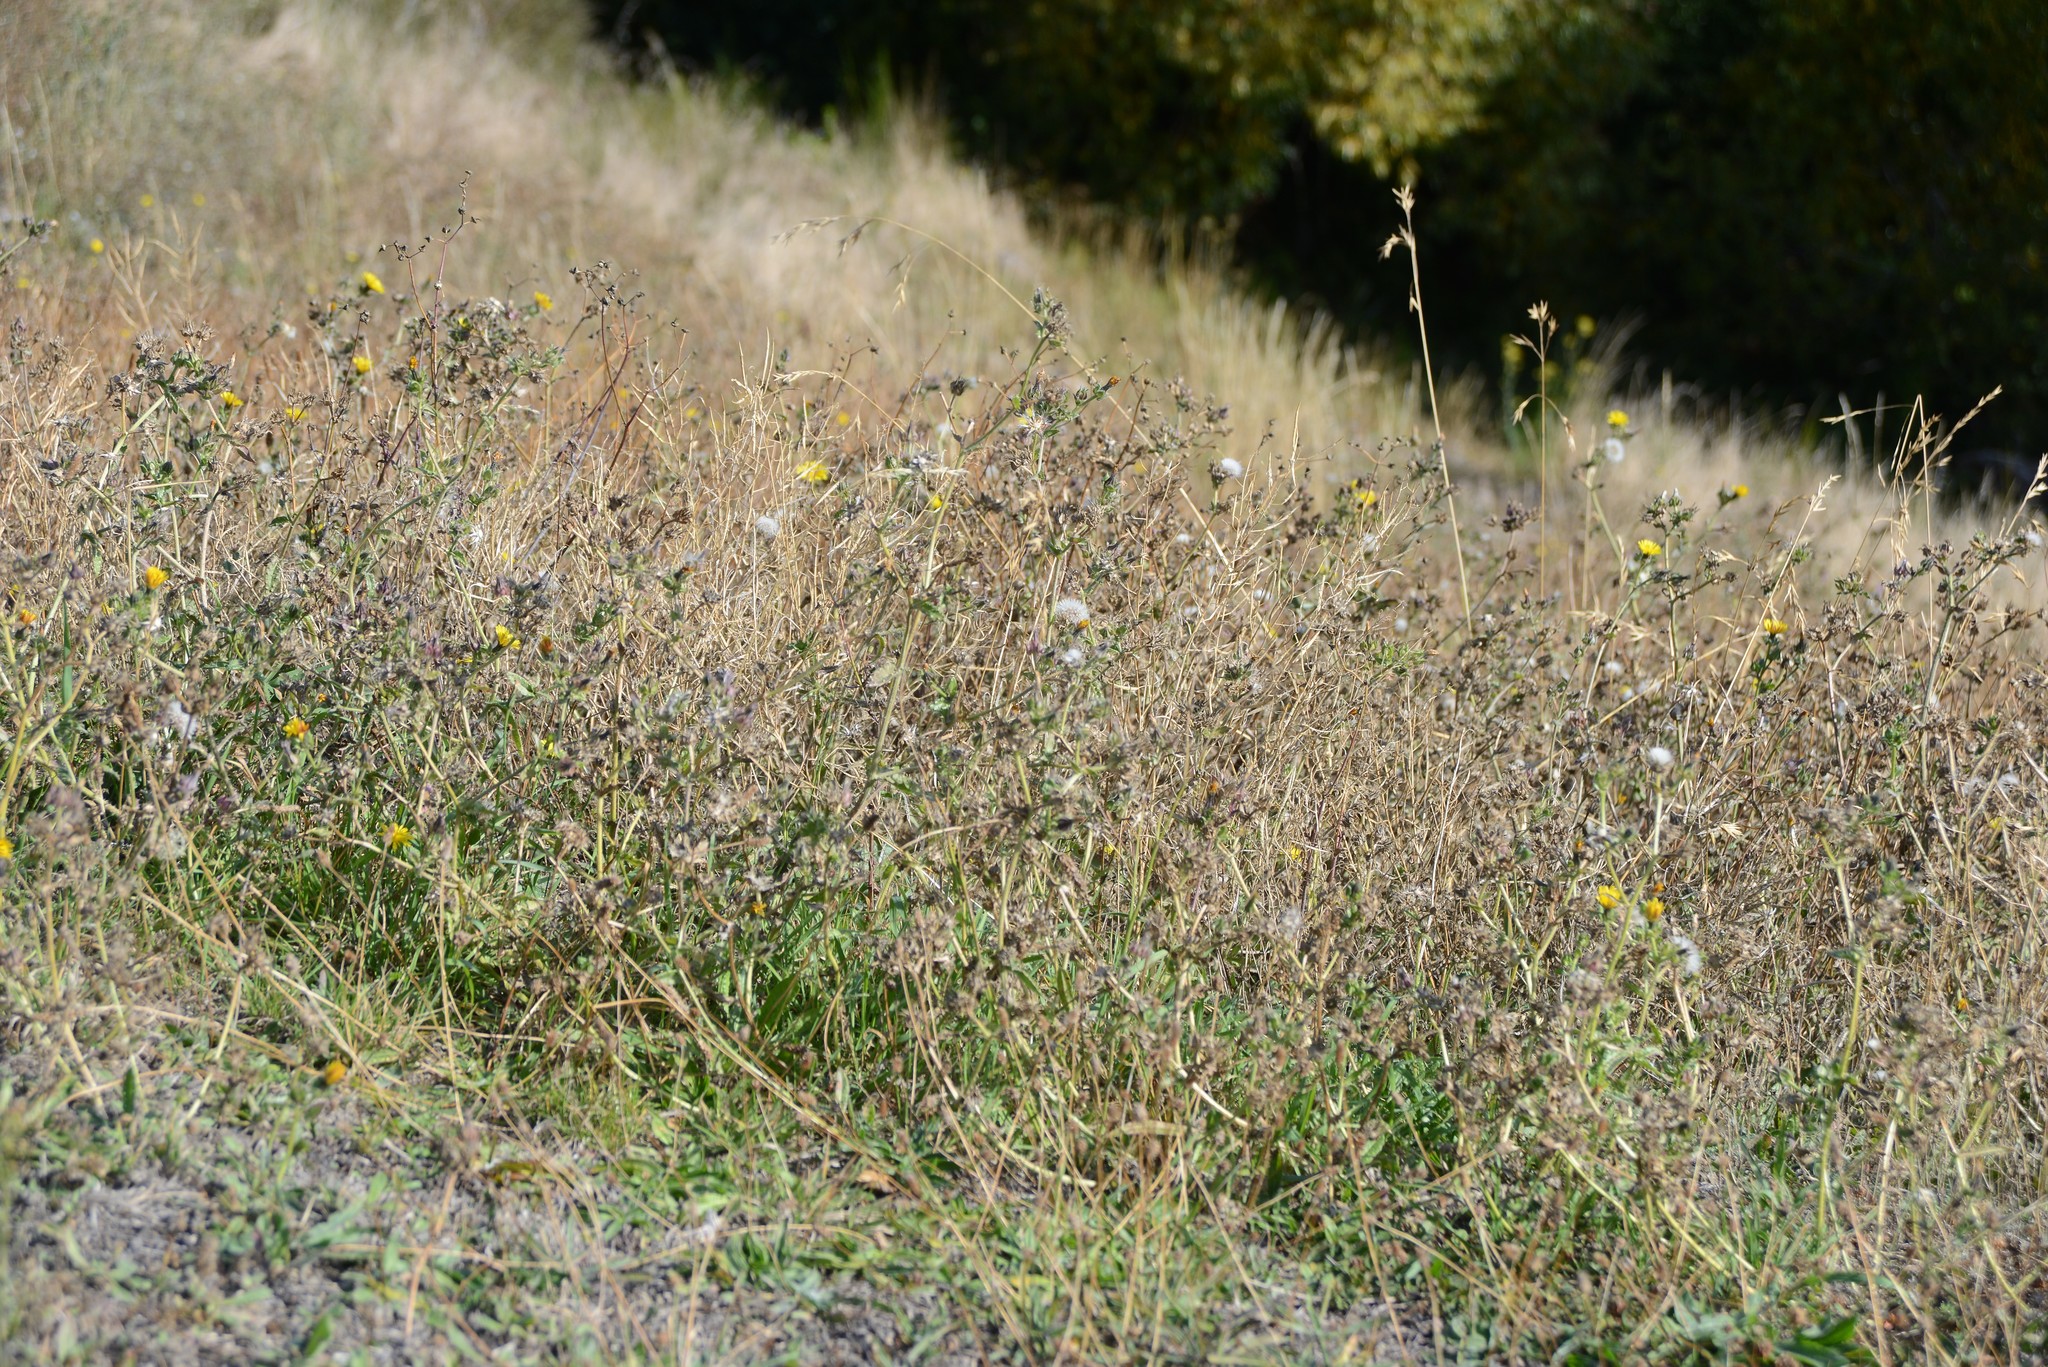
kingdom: Plantae
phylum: Tracheophyta
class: Magnoliopsida
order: Asterales
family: Asteraceae
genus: Helminthotheca
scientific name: Helminthotheca echioides
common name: Ox-tongue
